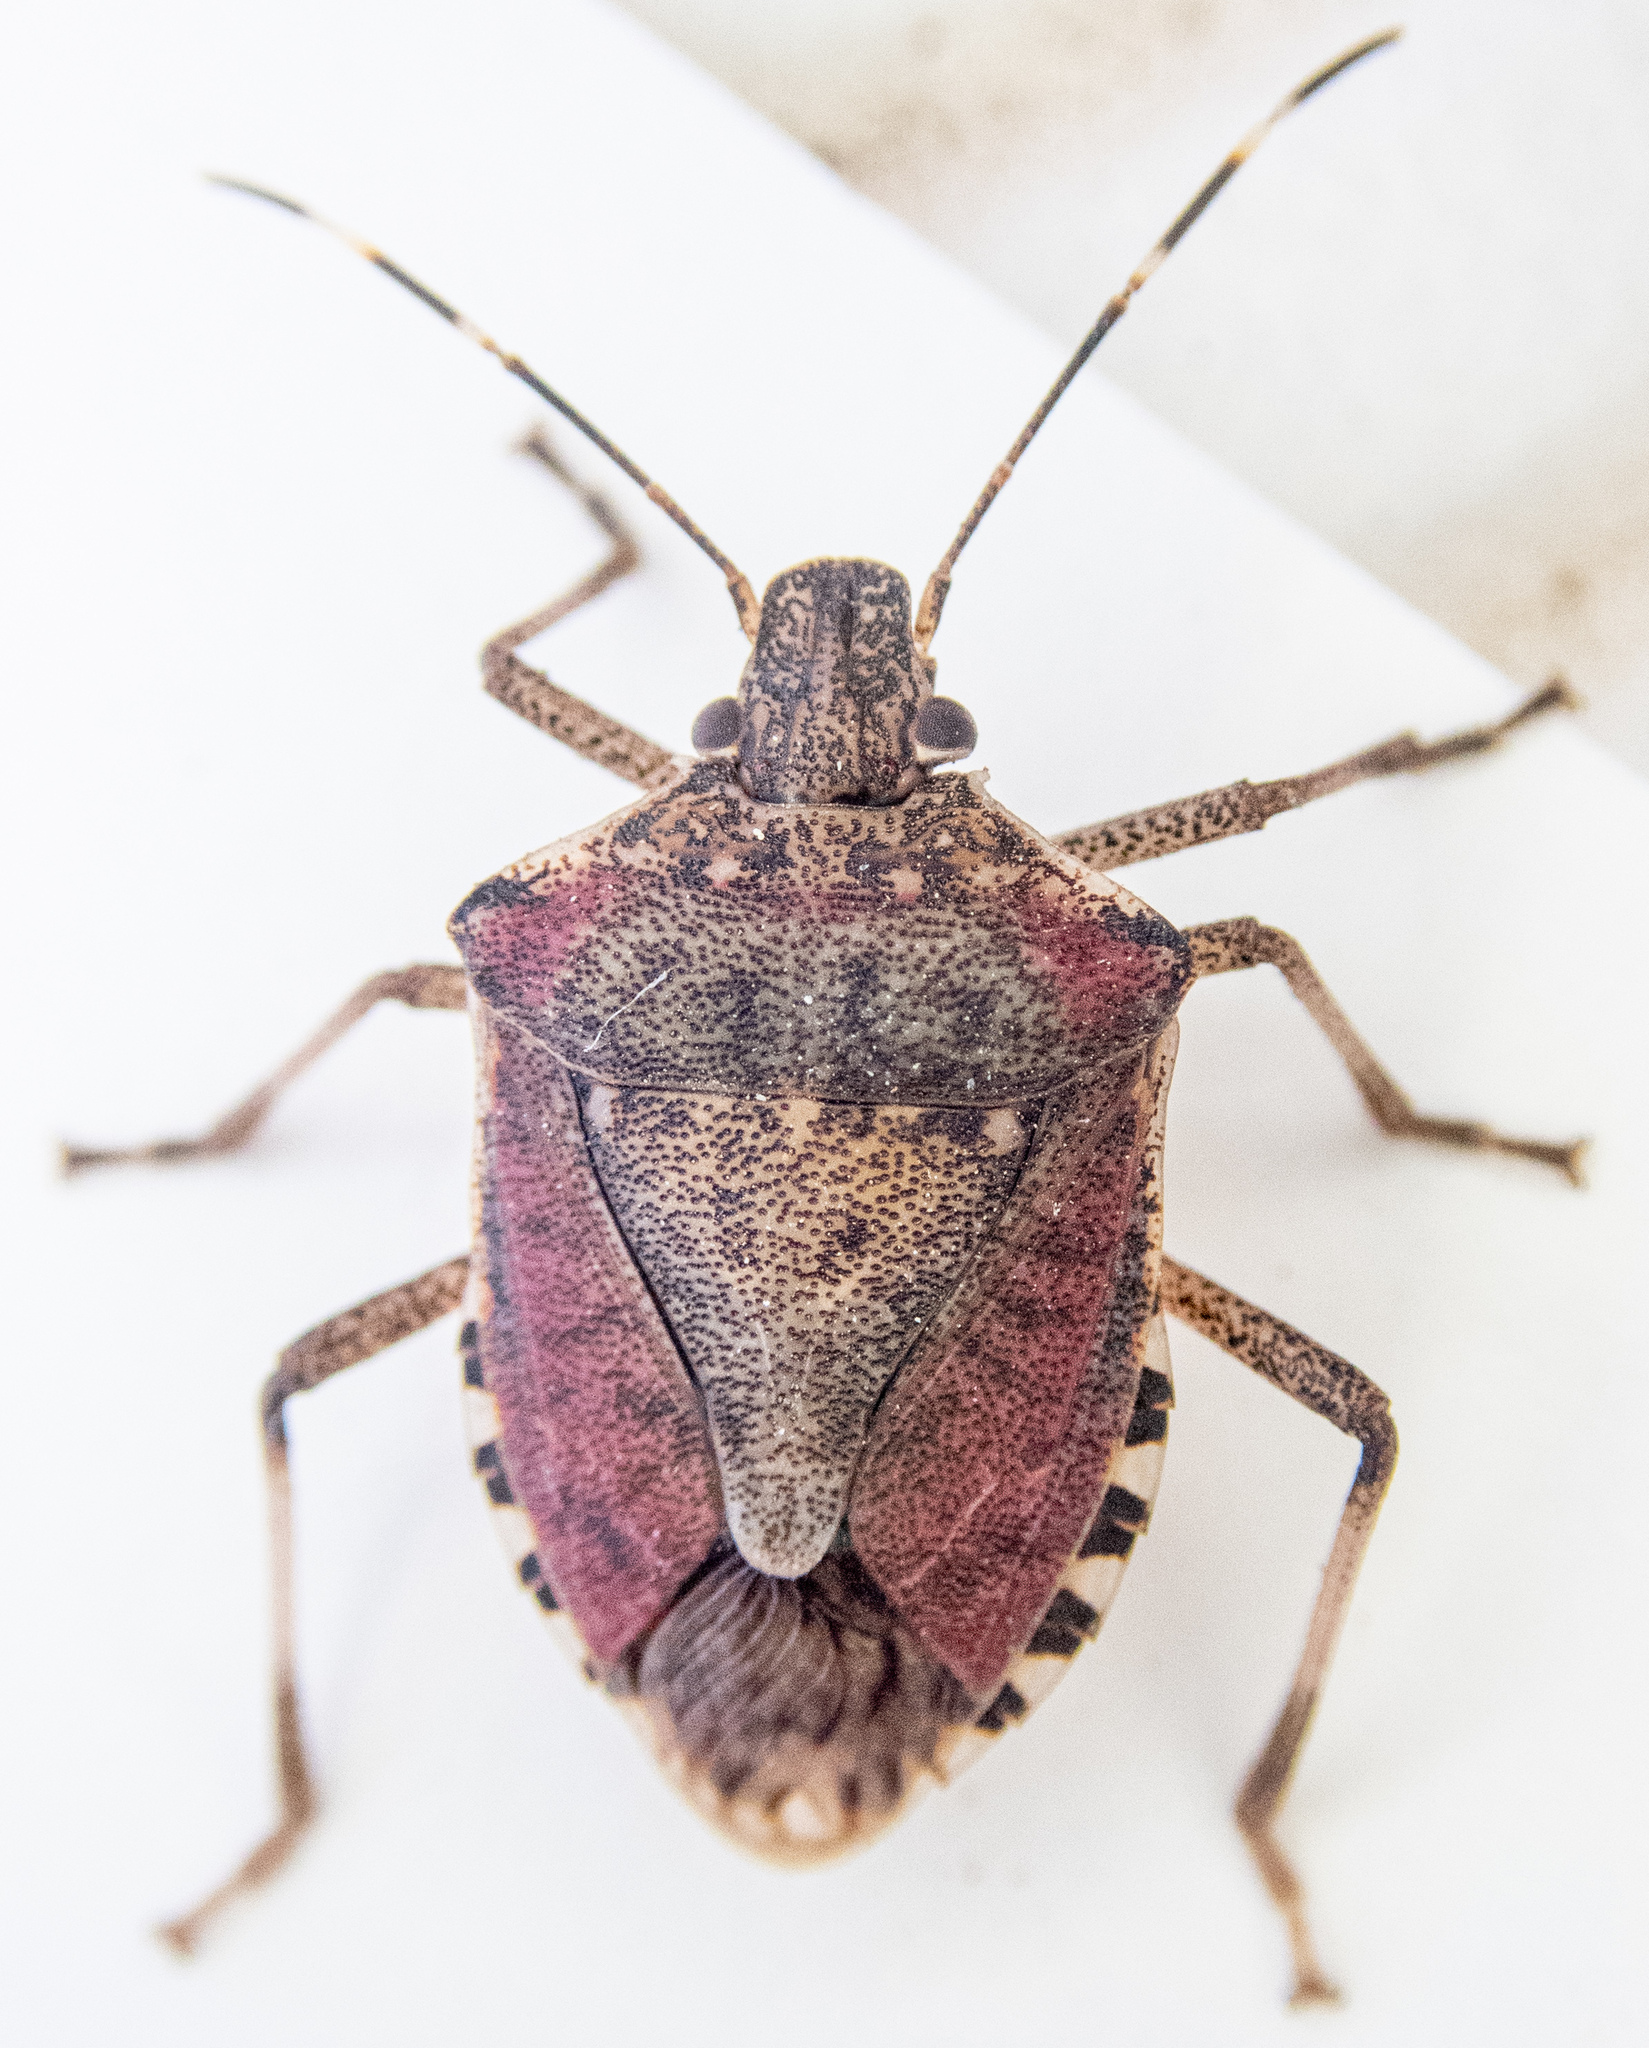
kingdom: Animalia
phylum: Arthropoda
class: Insecta
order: Hemiptera
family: Pentatomidae
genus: Halyomorpha
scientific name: Halyomorpha halys
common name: Brown marmorated stink bug
